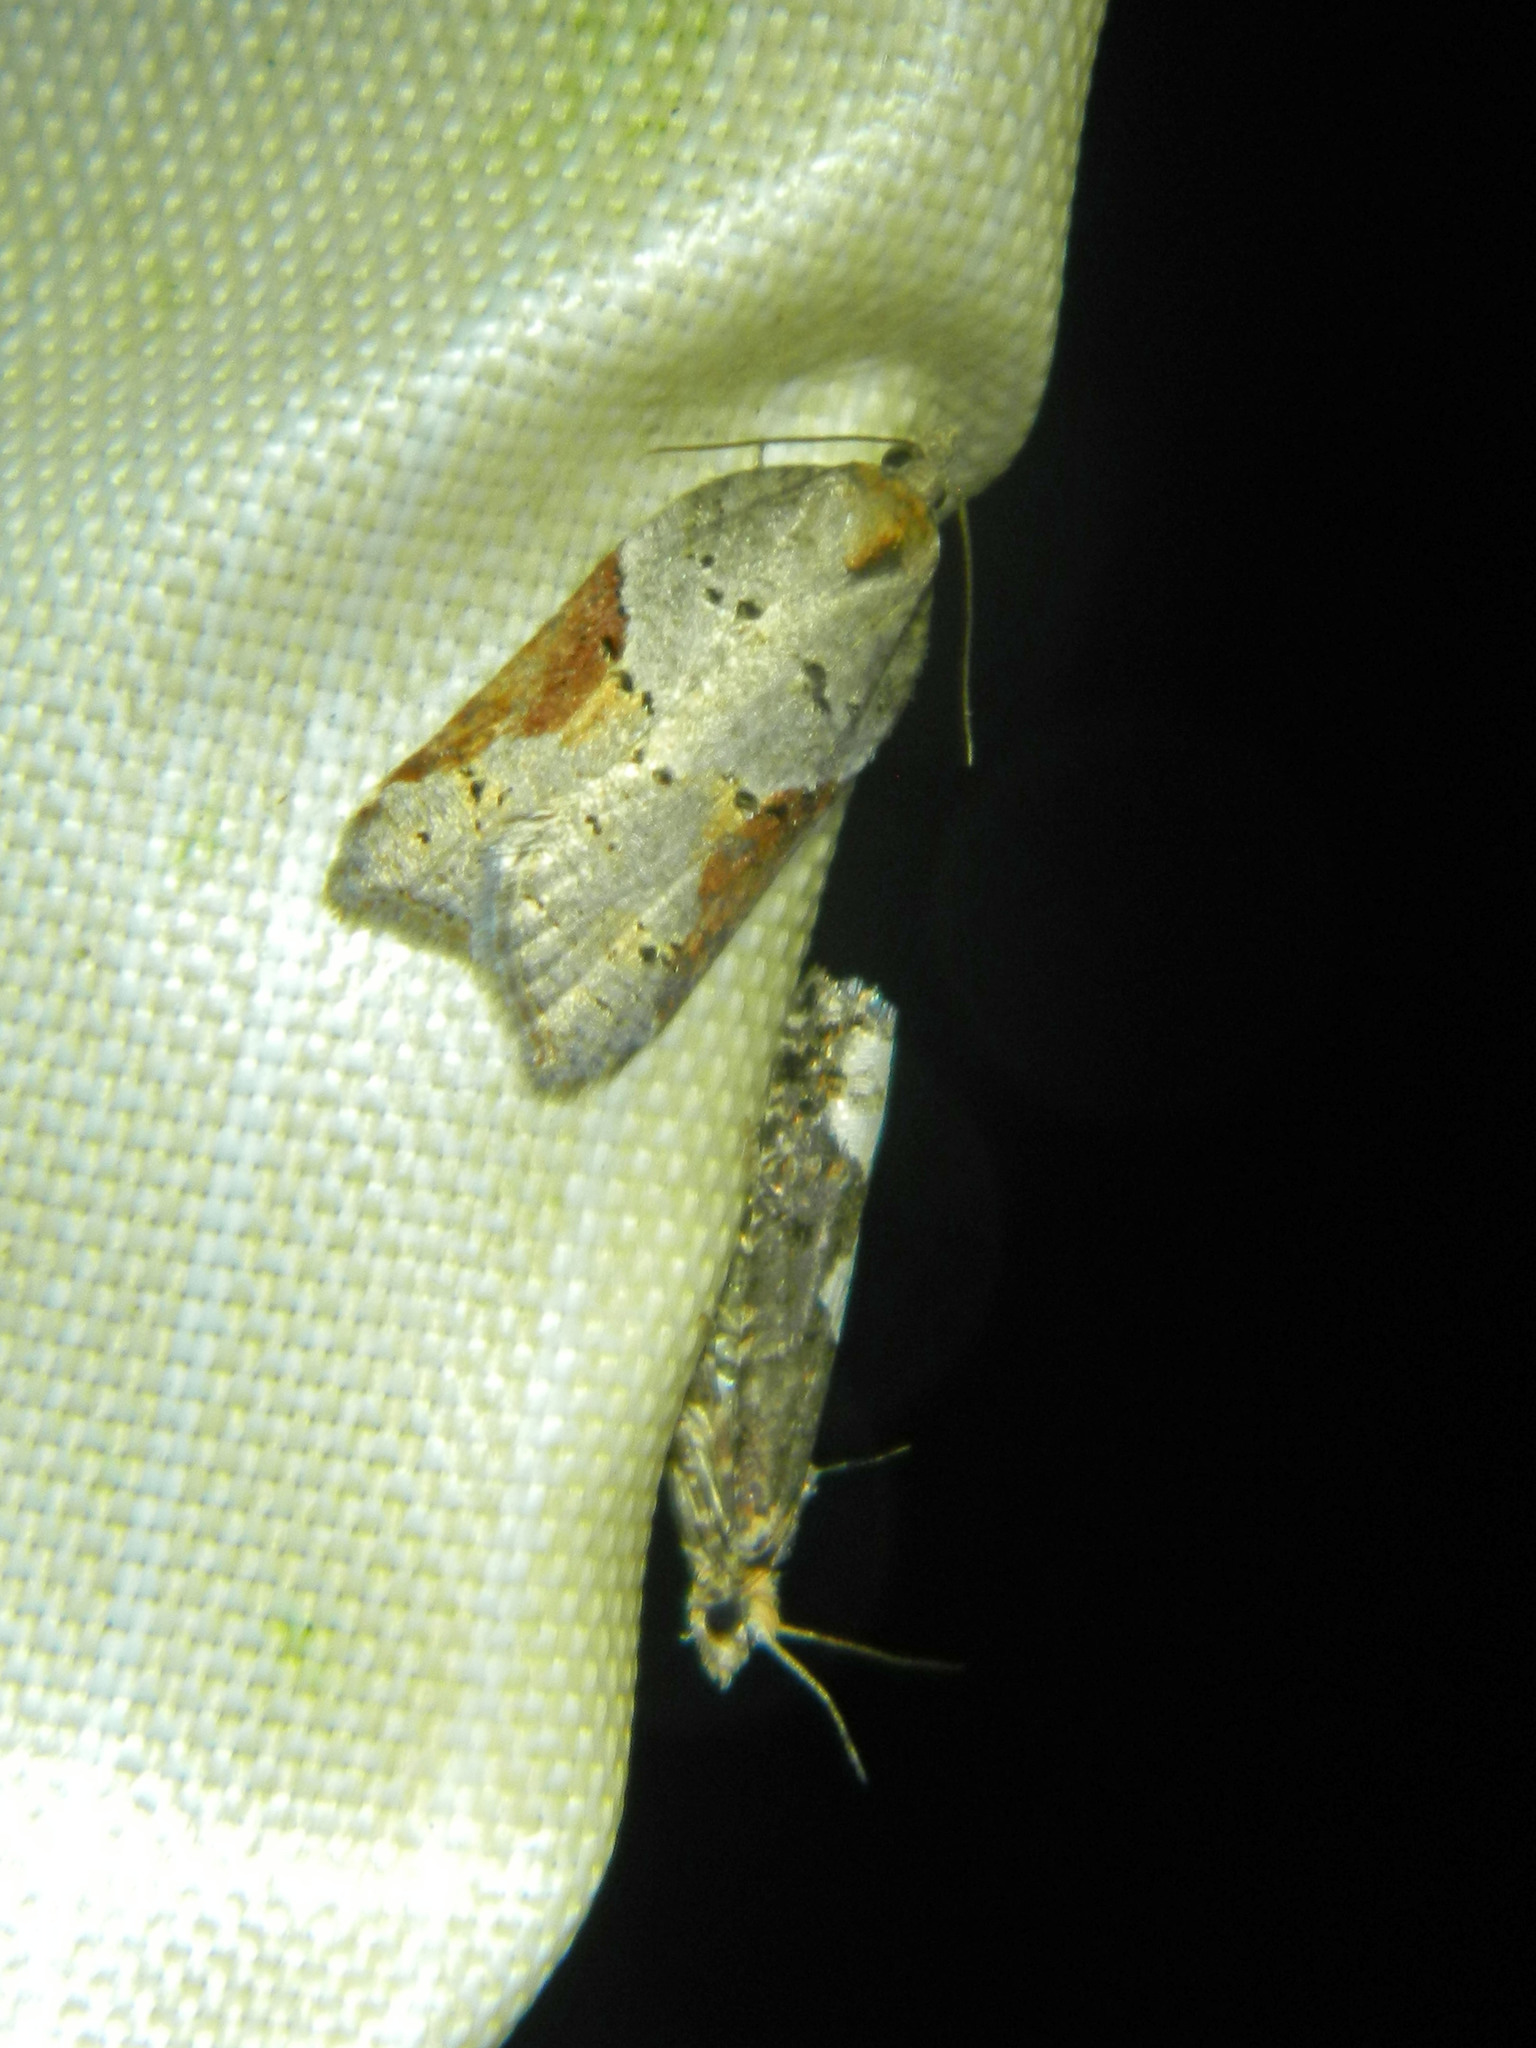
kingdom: Animalia
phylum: Arthropoda
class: Insecta
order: Lepidoptera
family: Tortricidae
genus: Acleris
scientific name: Acleris macdunnoughi
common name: Macdunnough's acleris
